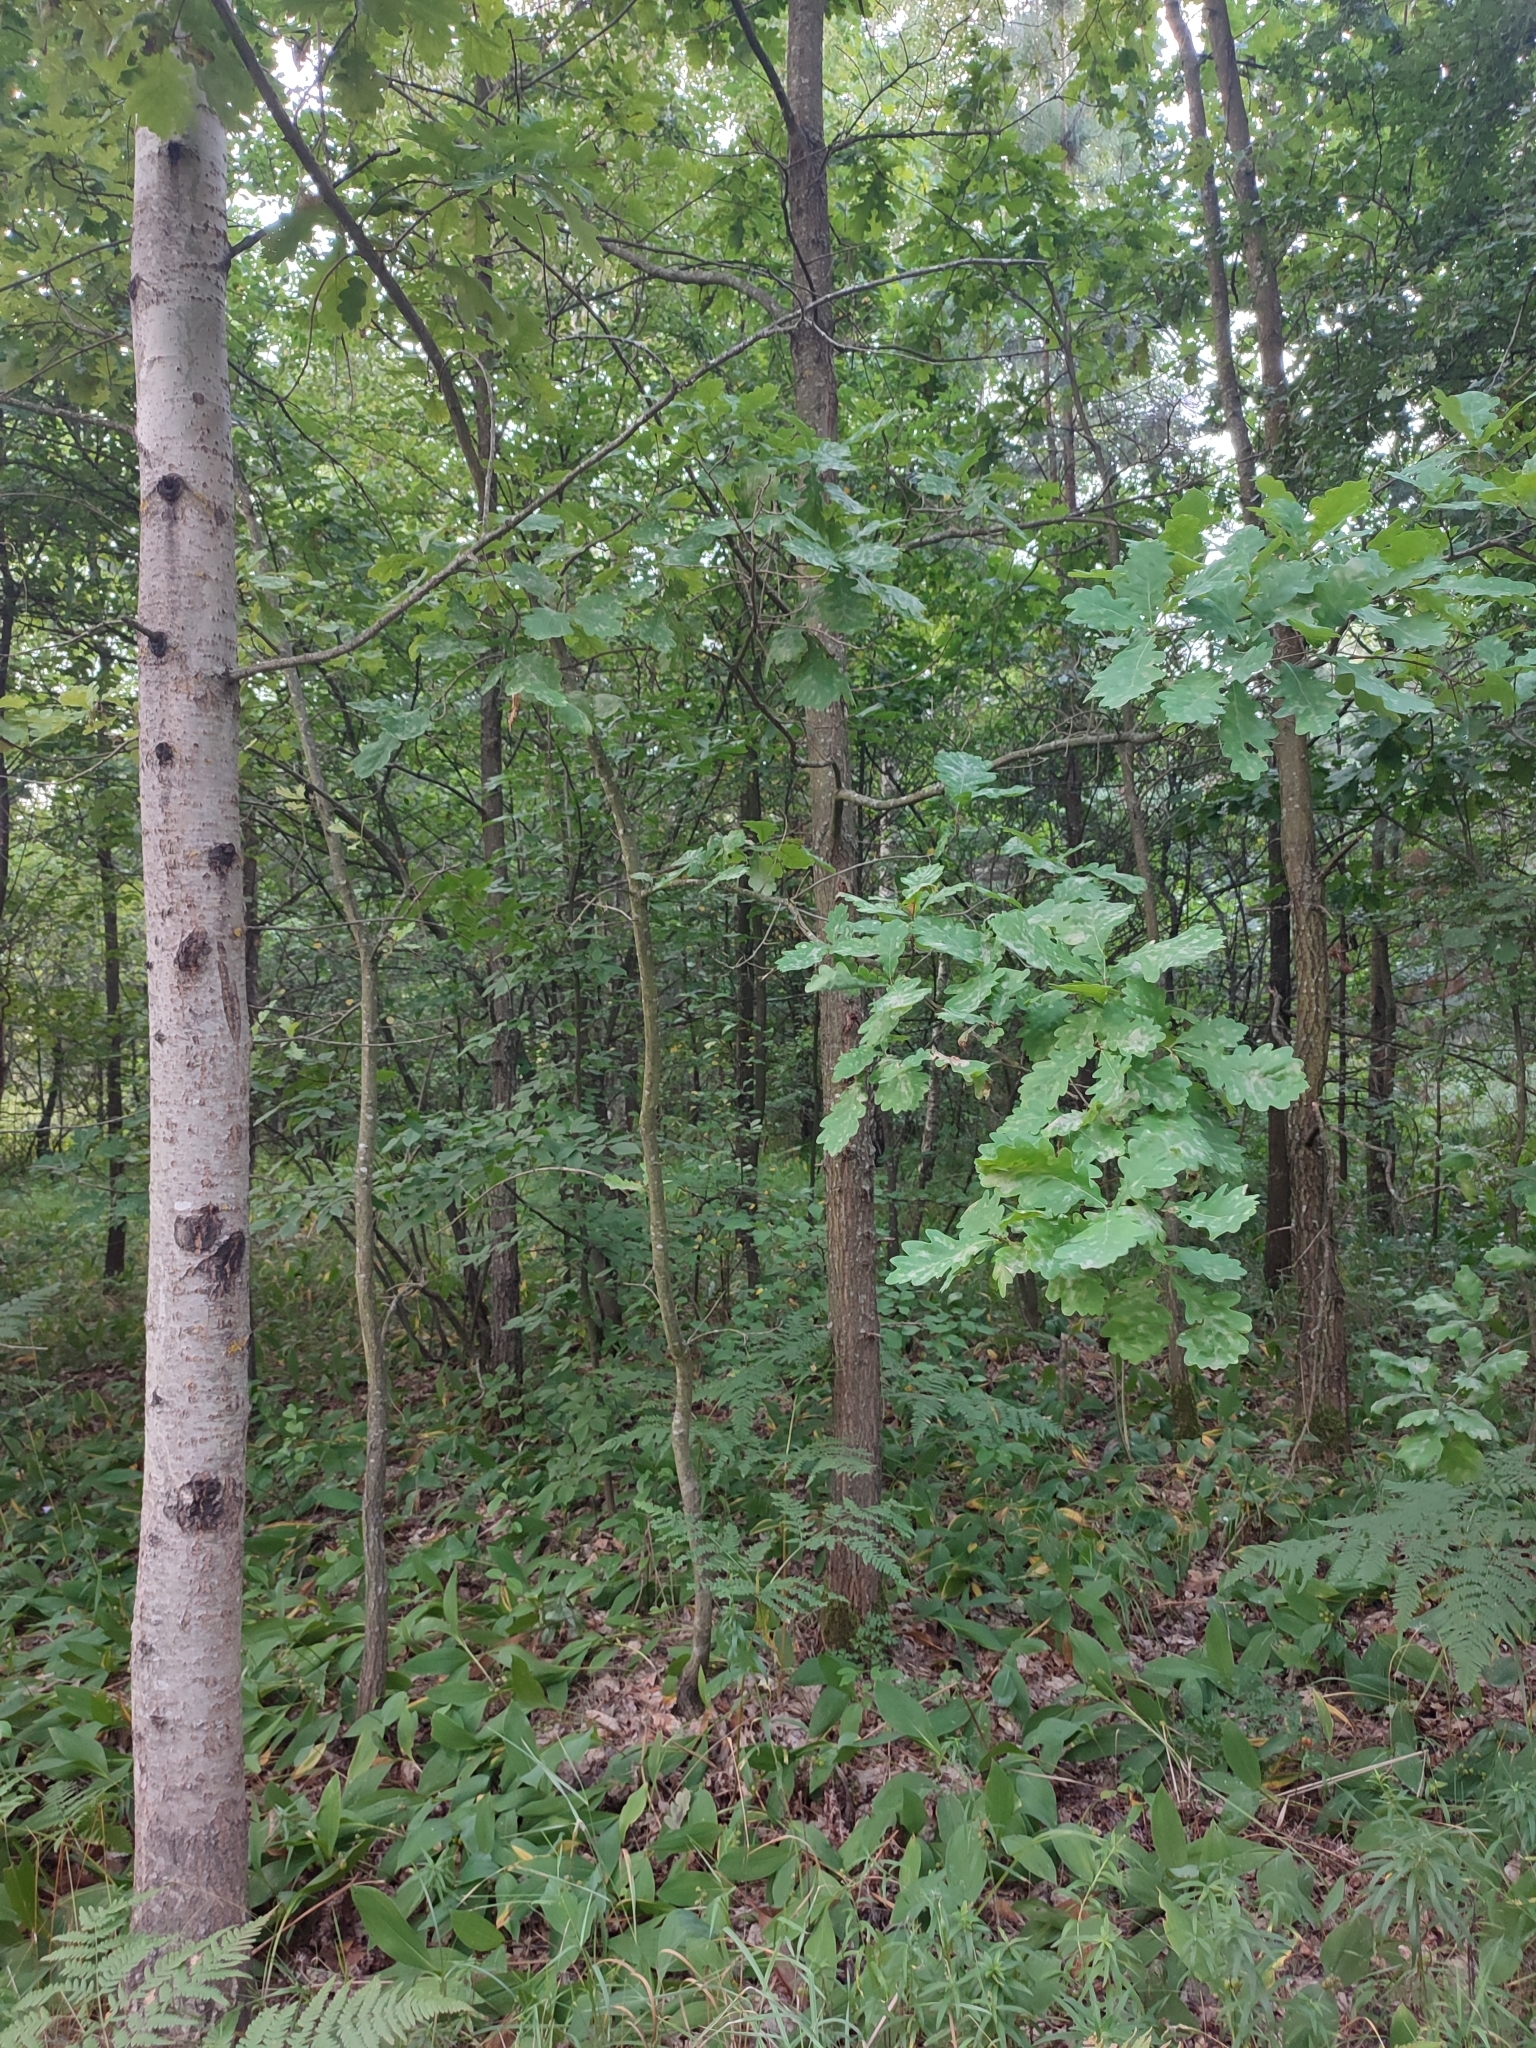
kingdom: Plantae
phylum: Tracheophyta
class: Magnoliopsida
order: Fagales
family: Fagaceae
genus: Quercus
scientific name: Quercus robur
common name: Pedunculate oak
